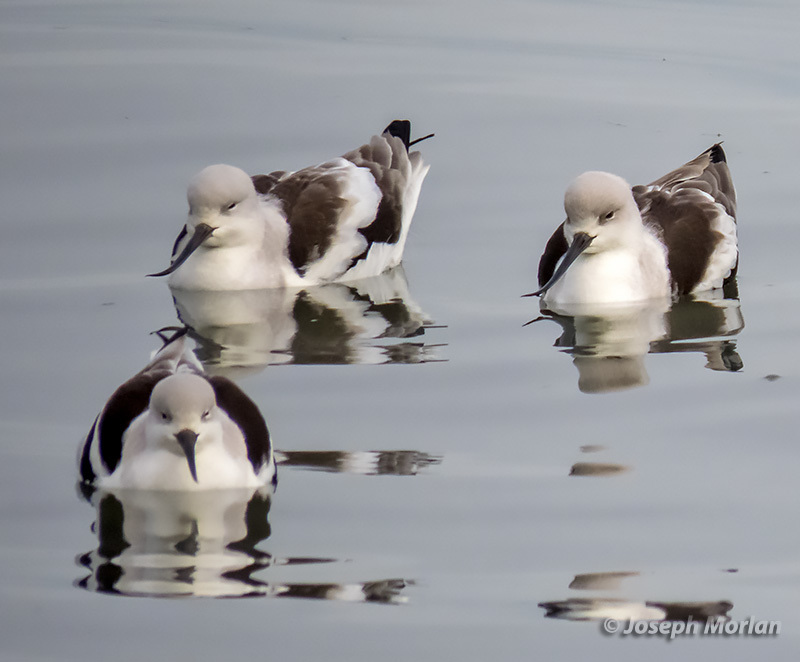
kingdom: Animalia
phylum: Chordata
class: Aves
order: Charadriiformes
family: Recurvirostridae
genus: Recurvirostra
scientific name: Recurvirostra americana
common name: American avocet
